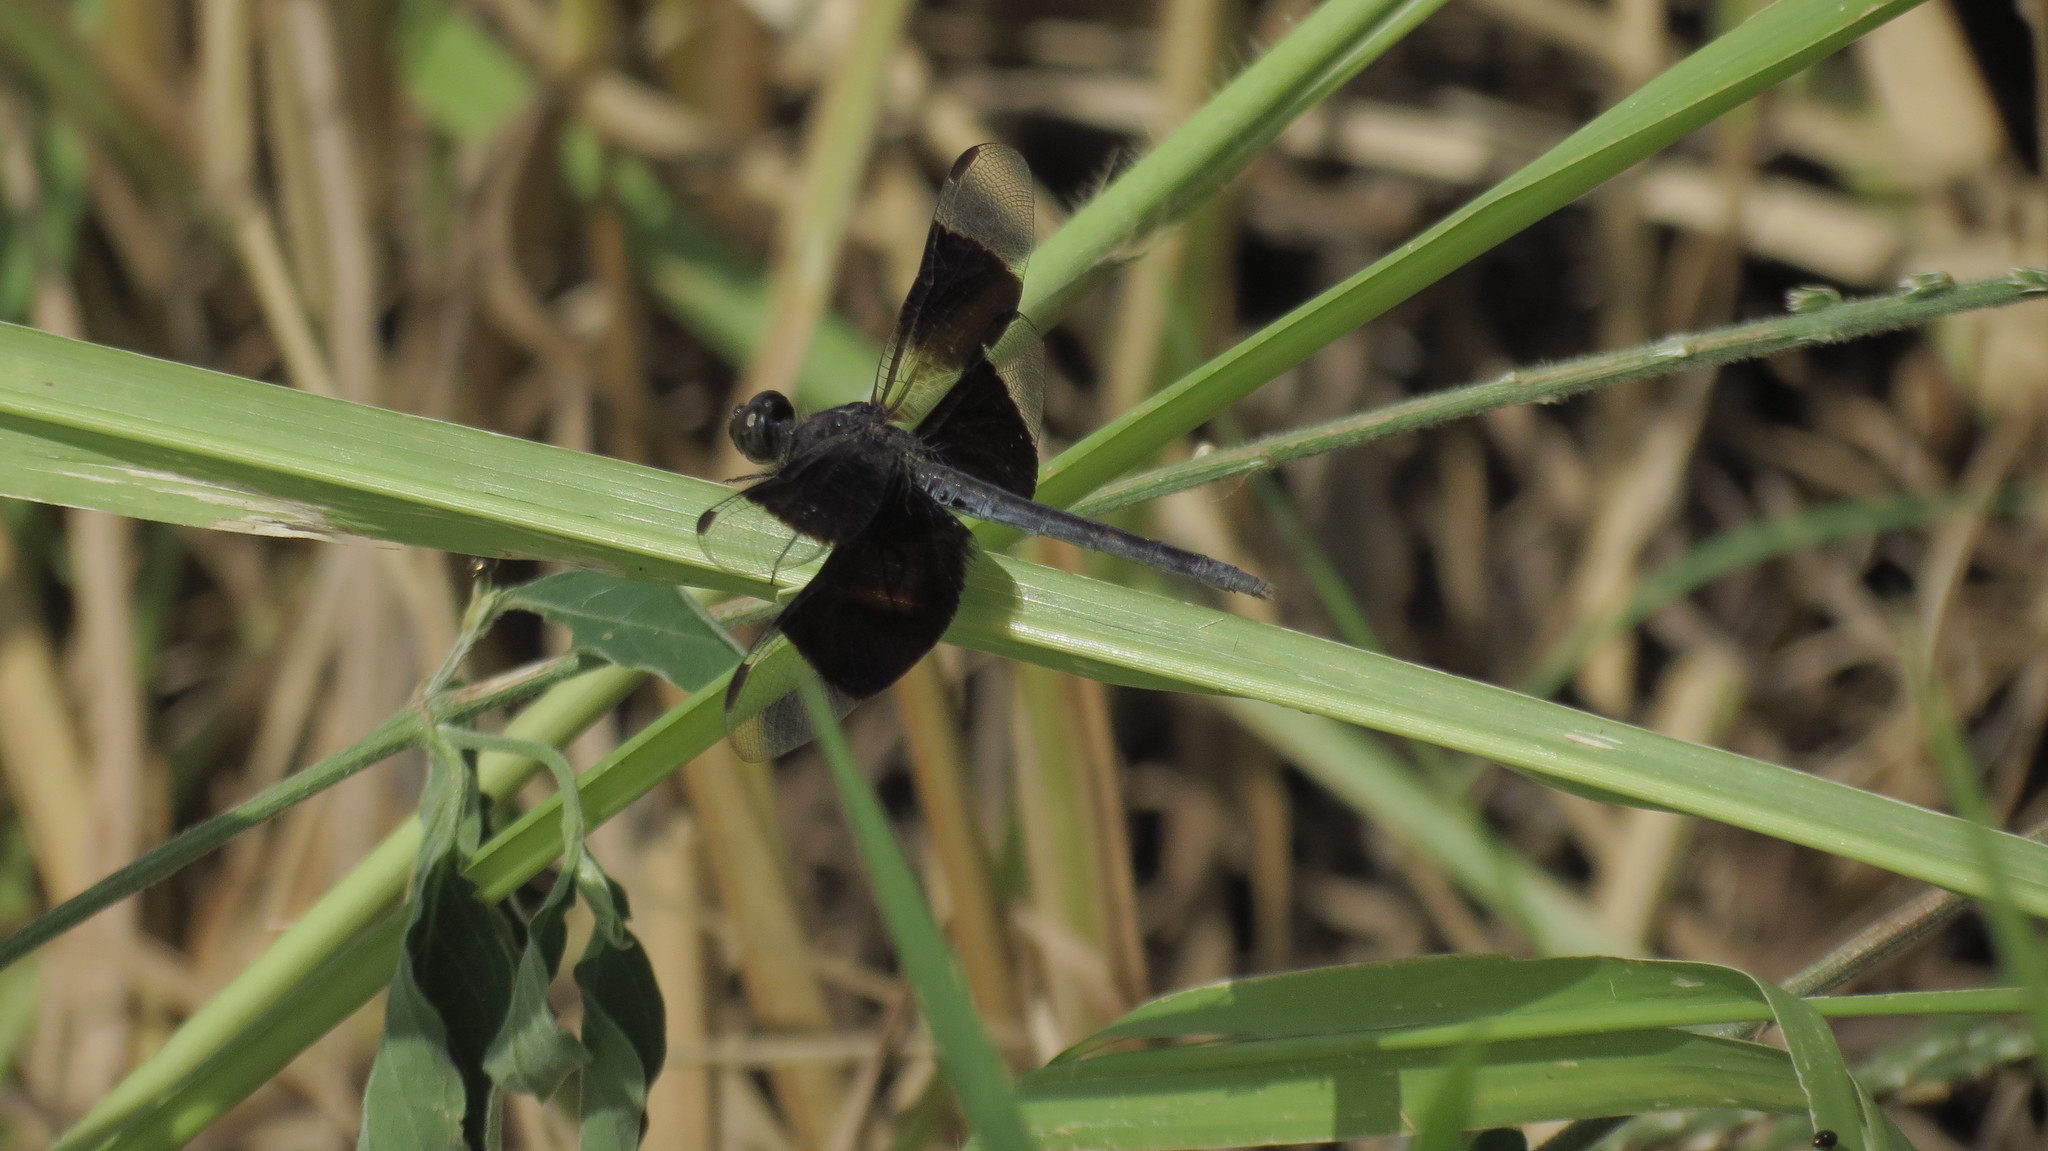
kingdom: Animalia
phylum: Arthropoda
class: Insecta
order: Odonata
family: Libellulidae
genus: Erythrodiplax
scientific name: Erythrodiplax funerea
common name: Black-winged dragonlet
